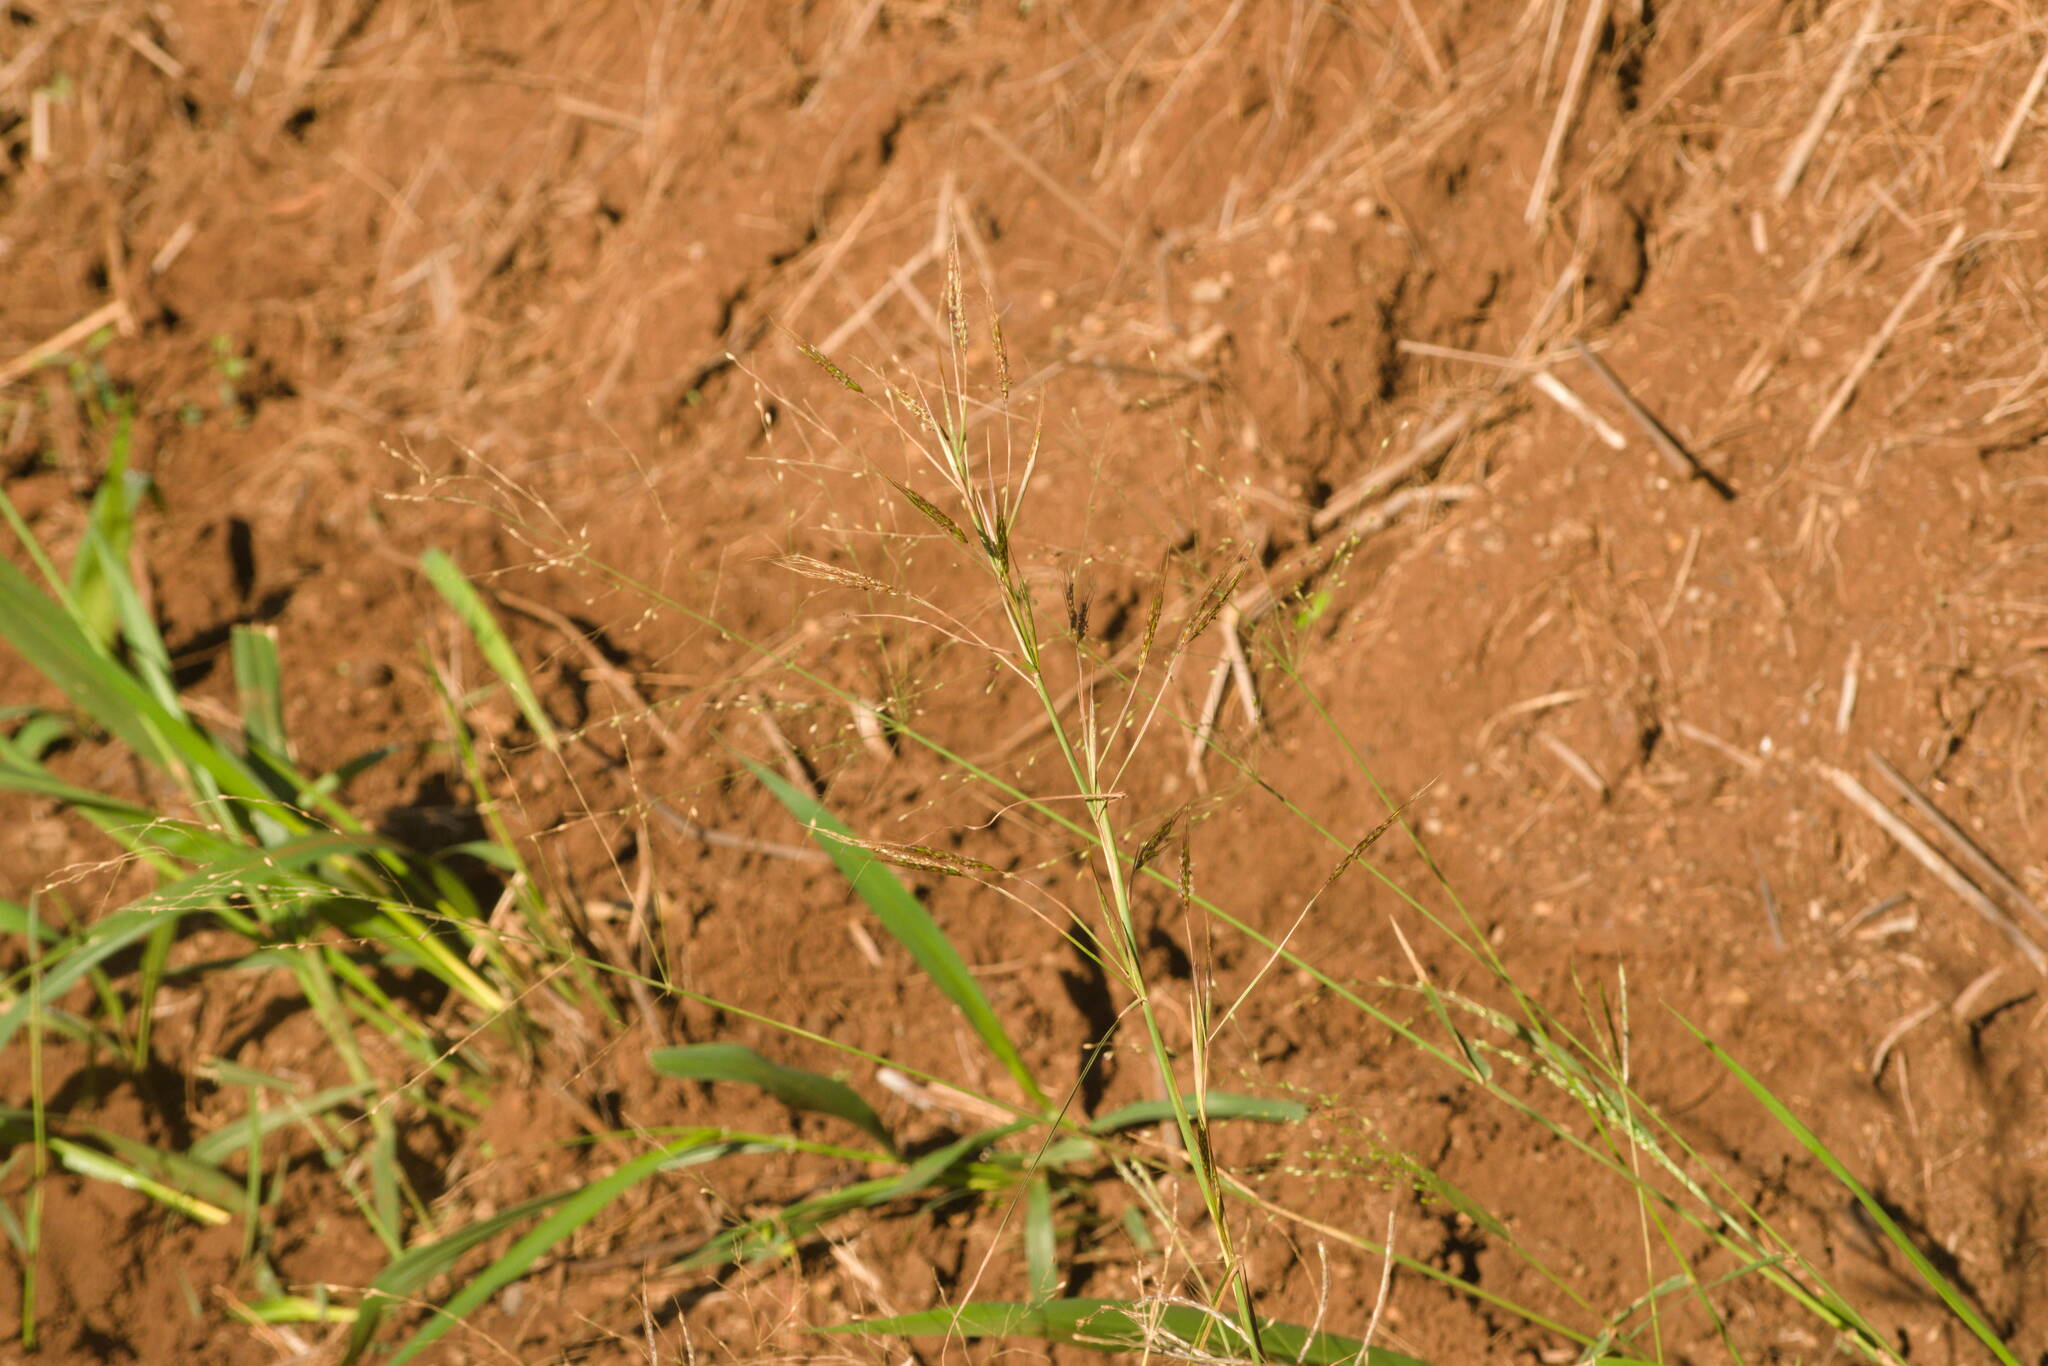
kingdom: Plantae
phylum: Tracheophyta
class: Liliopsida
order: Poales
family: Poaceae
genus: Megathyrsus
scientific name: Megathyrsus maximus
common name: Guineagrass
